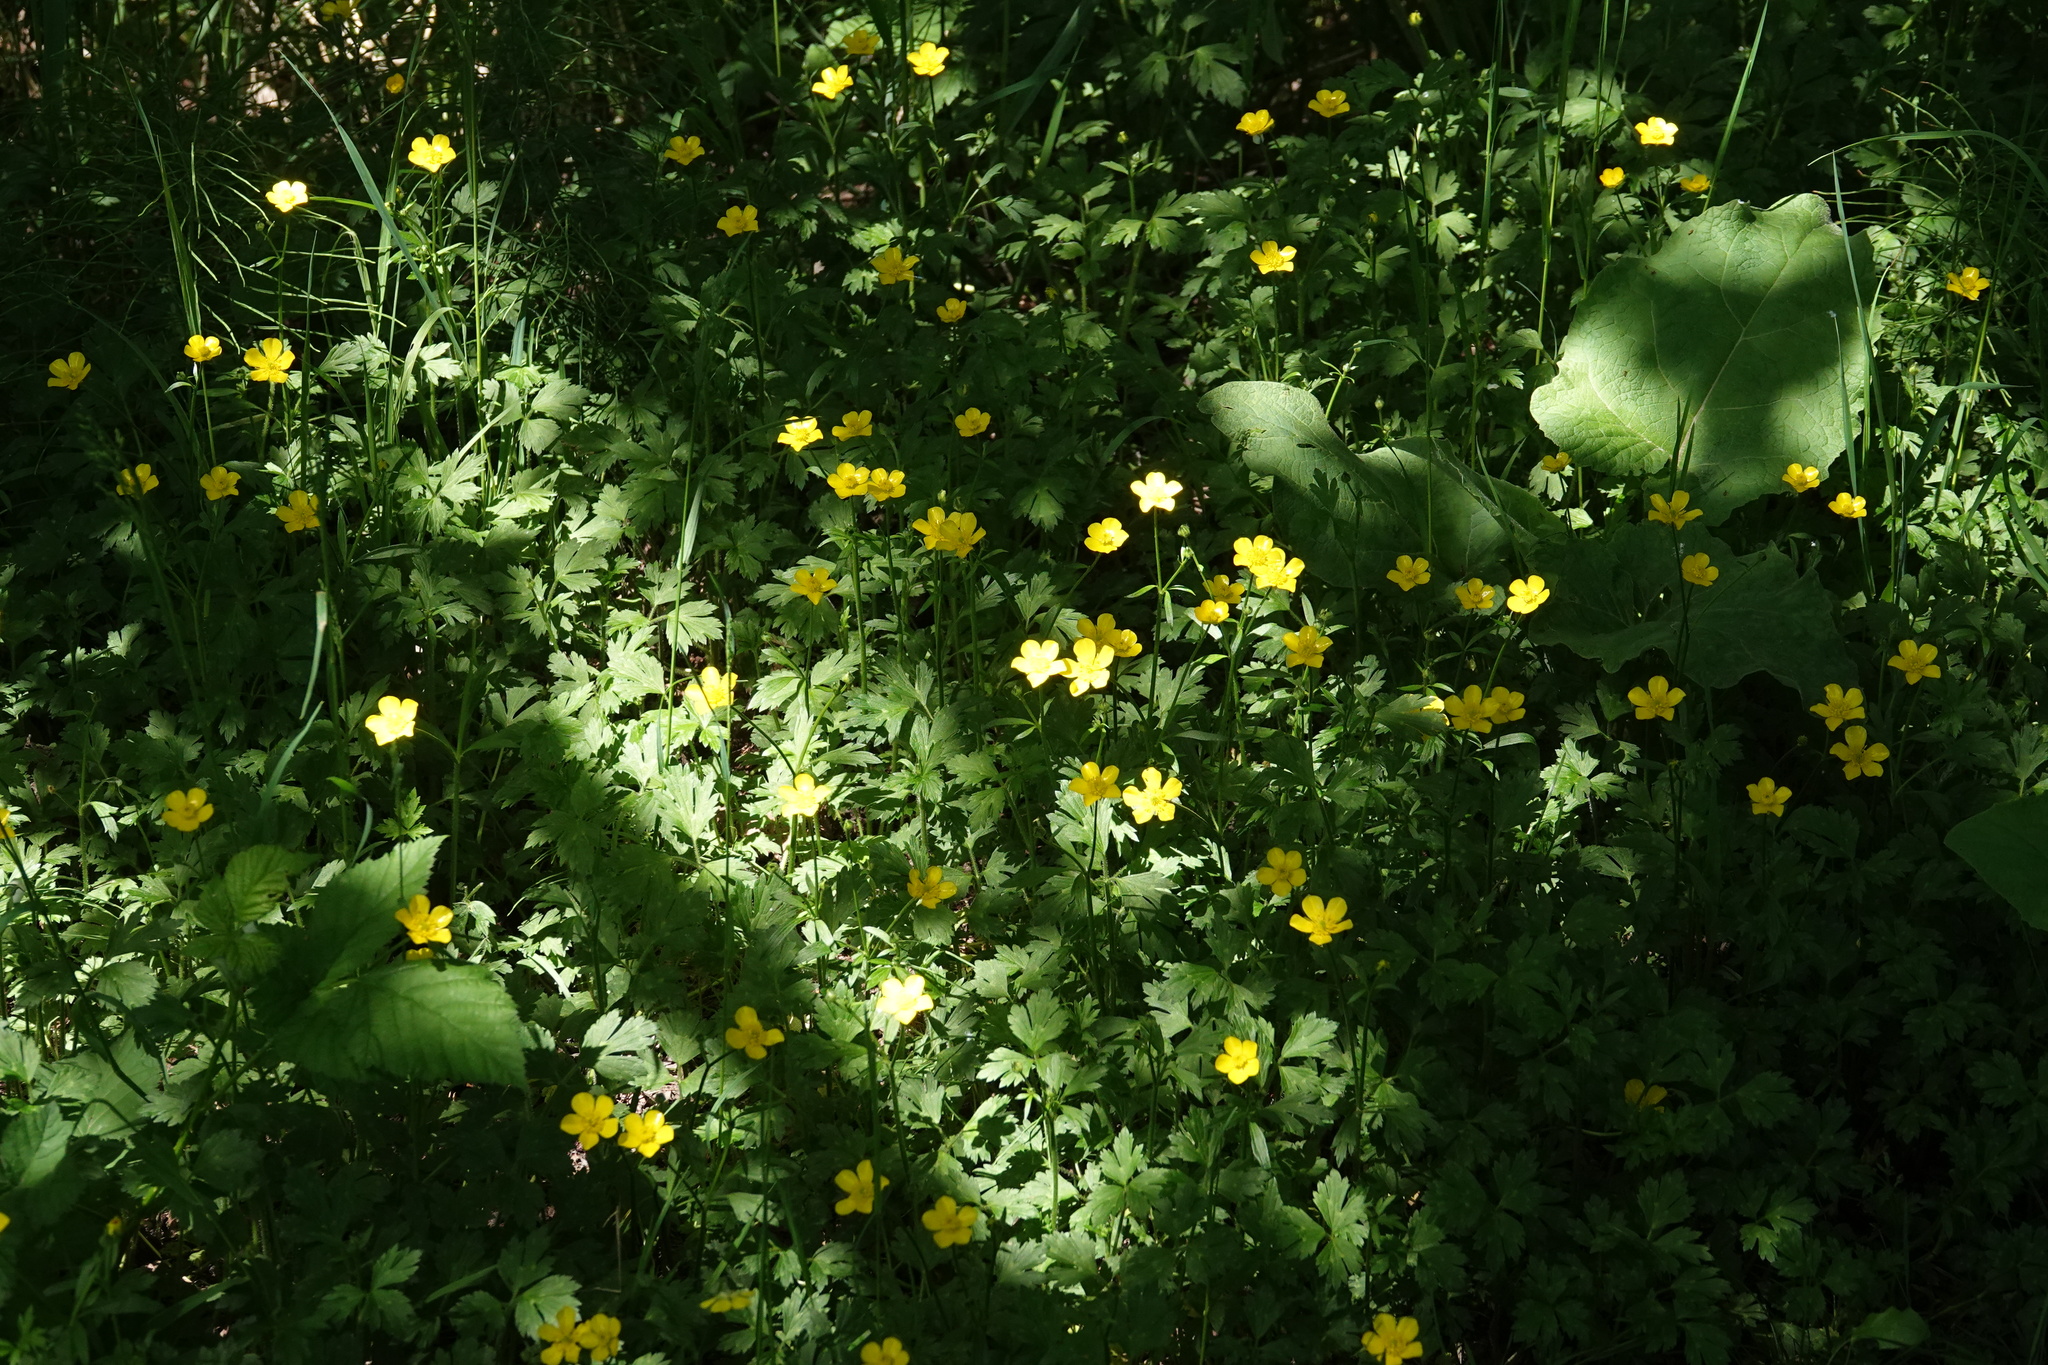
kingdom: Plantae
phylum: Tracheophyta
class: Magnoliopsida
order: Ranunculales
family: Ranunculaceae
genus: Ranunculus
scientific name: Ranunculus repens
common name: Creeping buttercup
